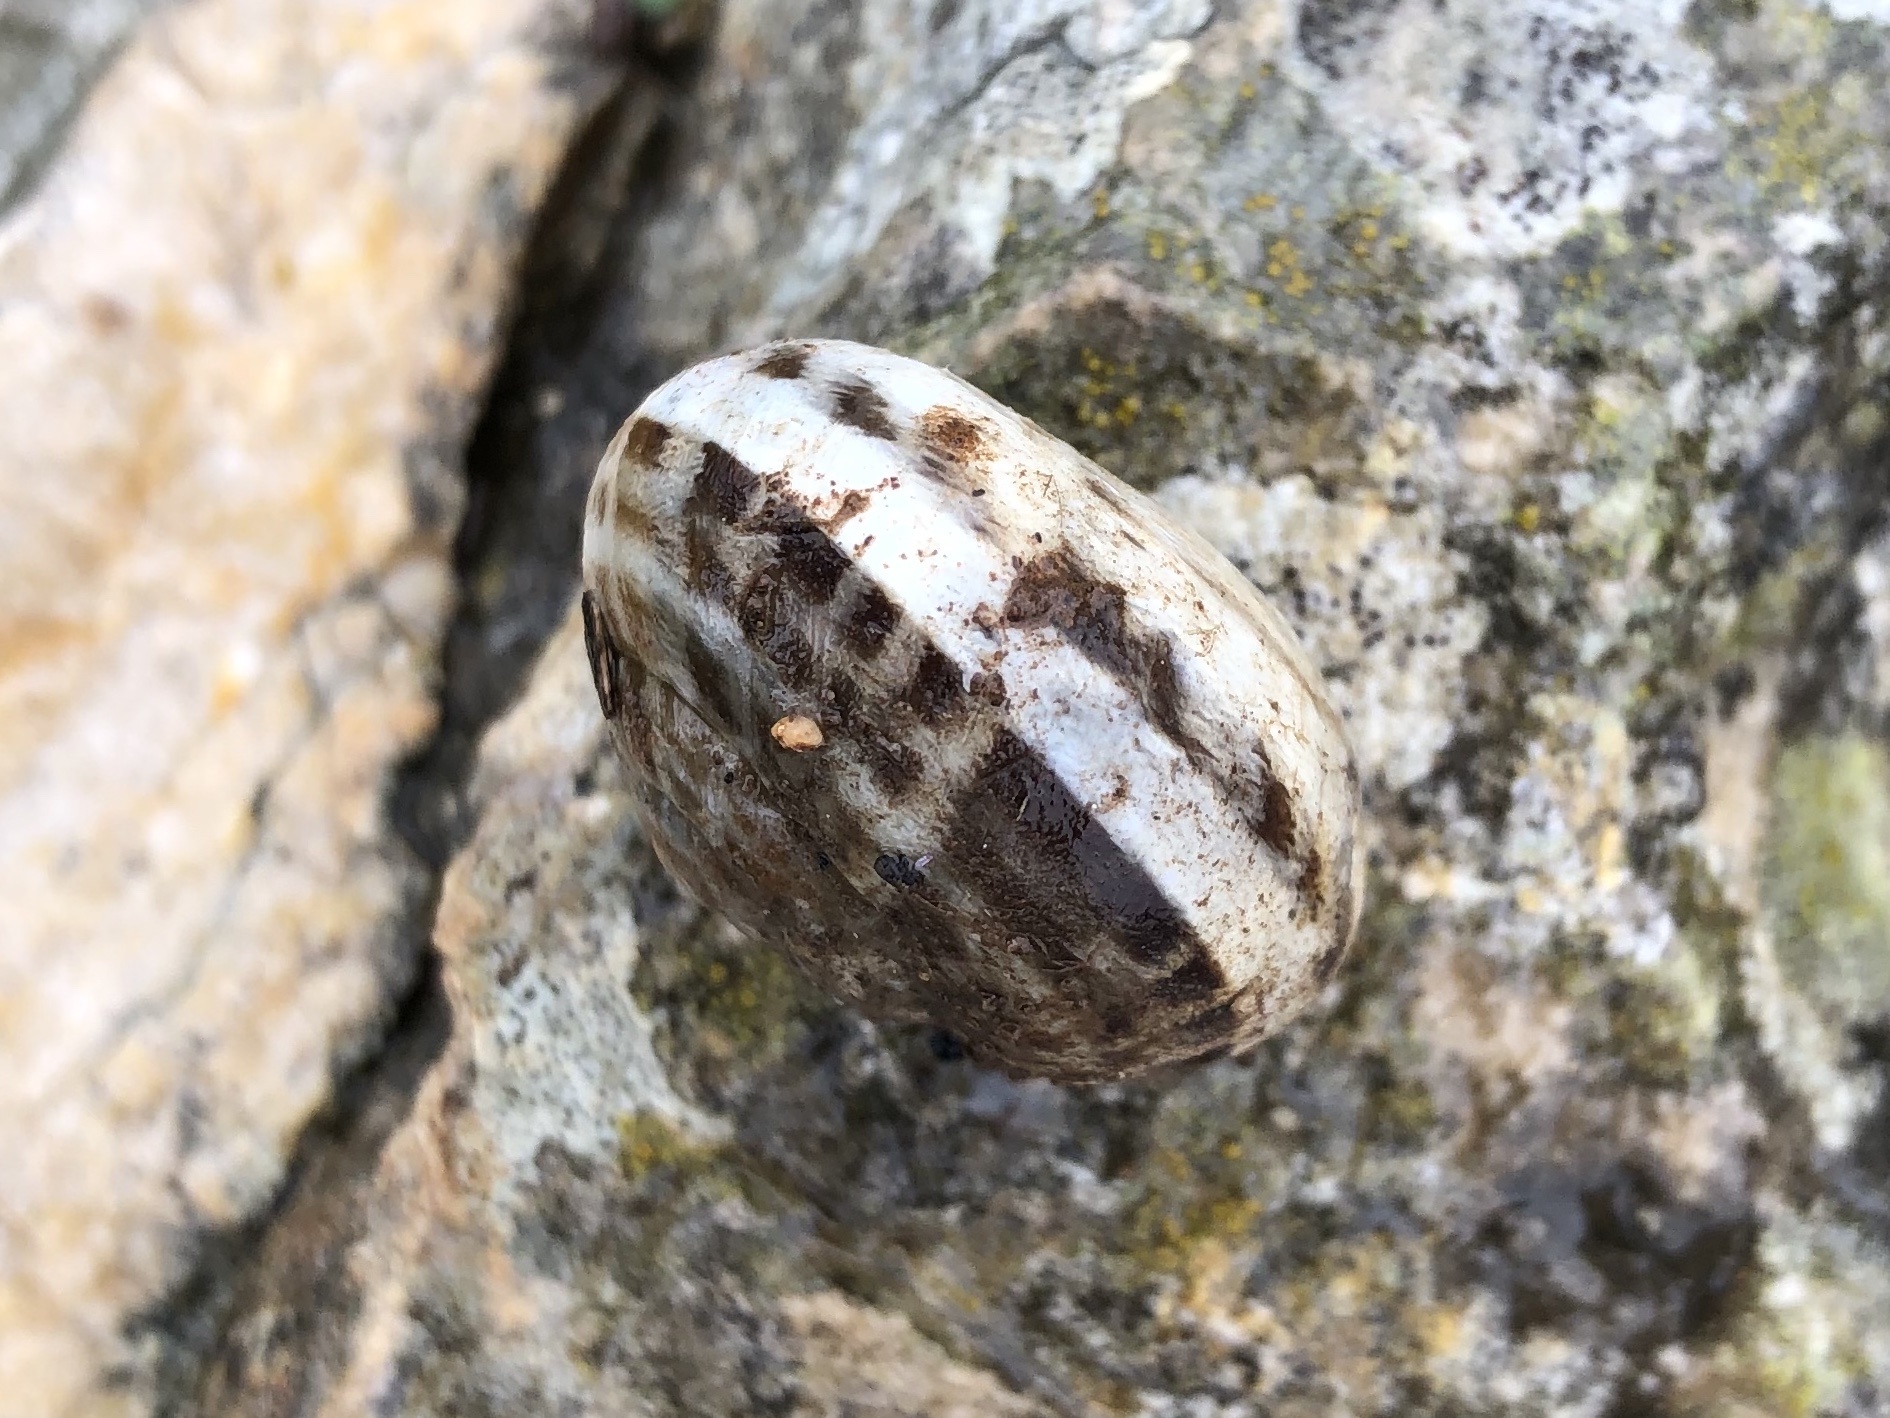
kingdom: Animalia
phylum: Mollusca
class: Gastropoda
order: Stylommatophora
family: Helicidae
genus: Eobania
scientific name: Eobania vermiculata
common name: Chocolateband snail
